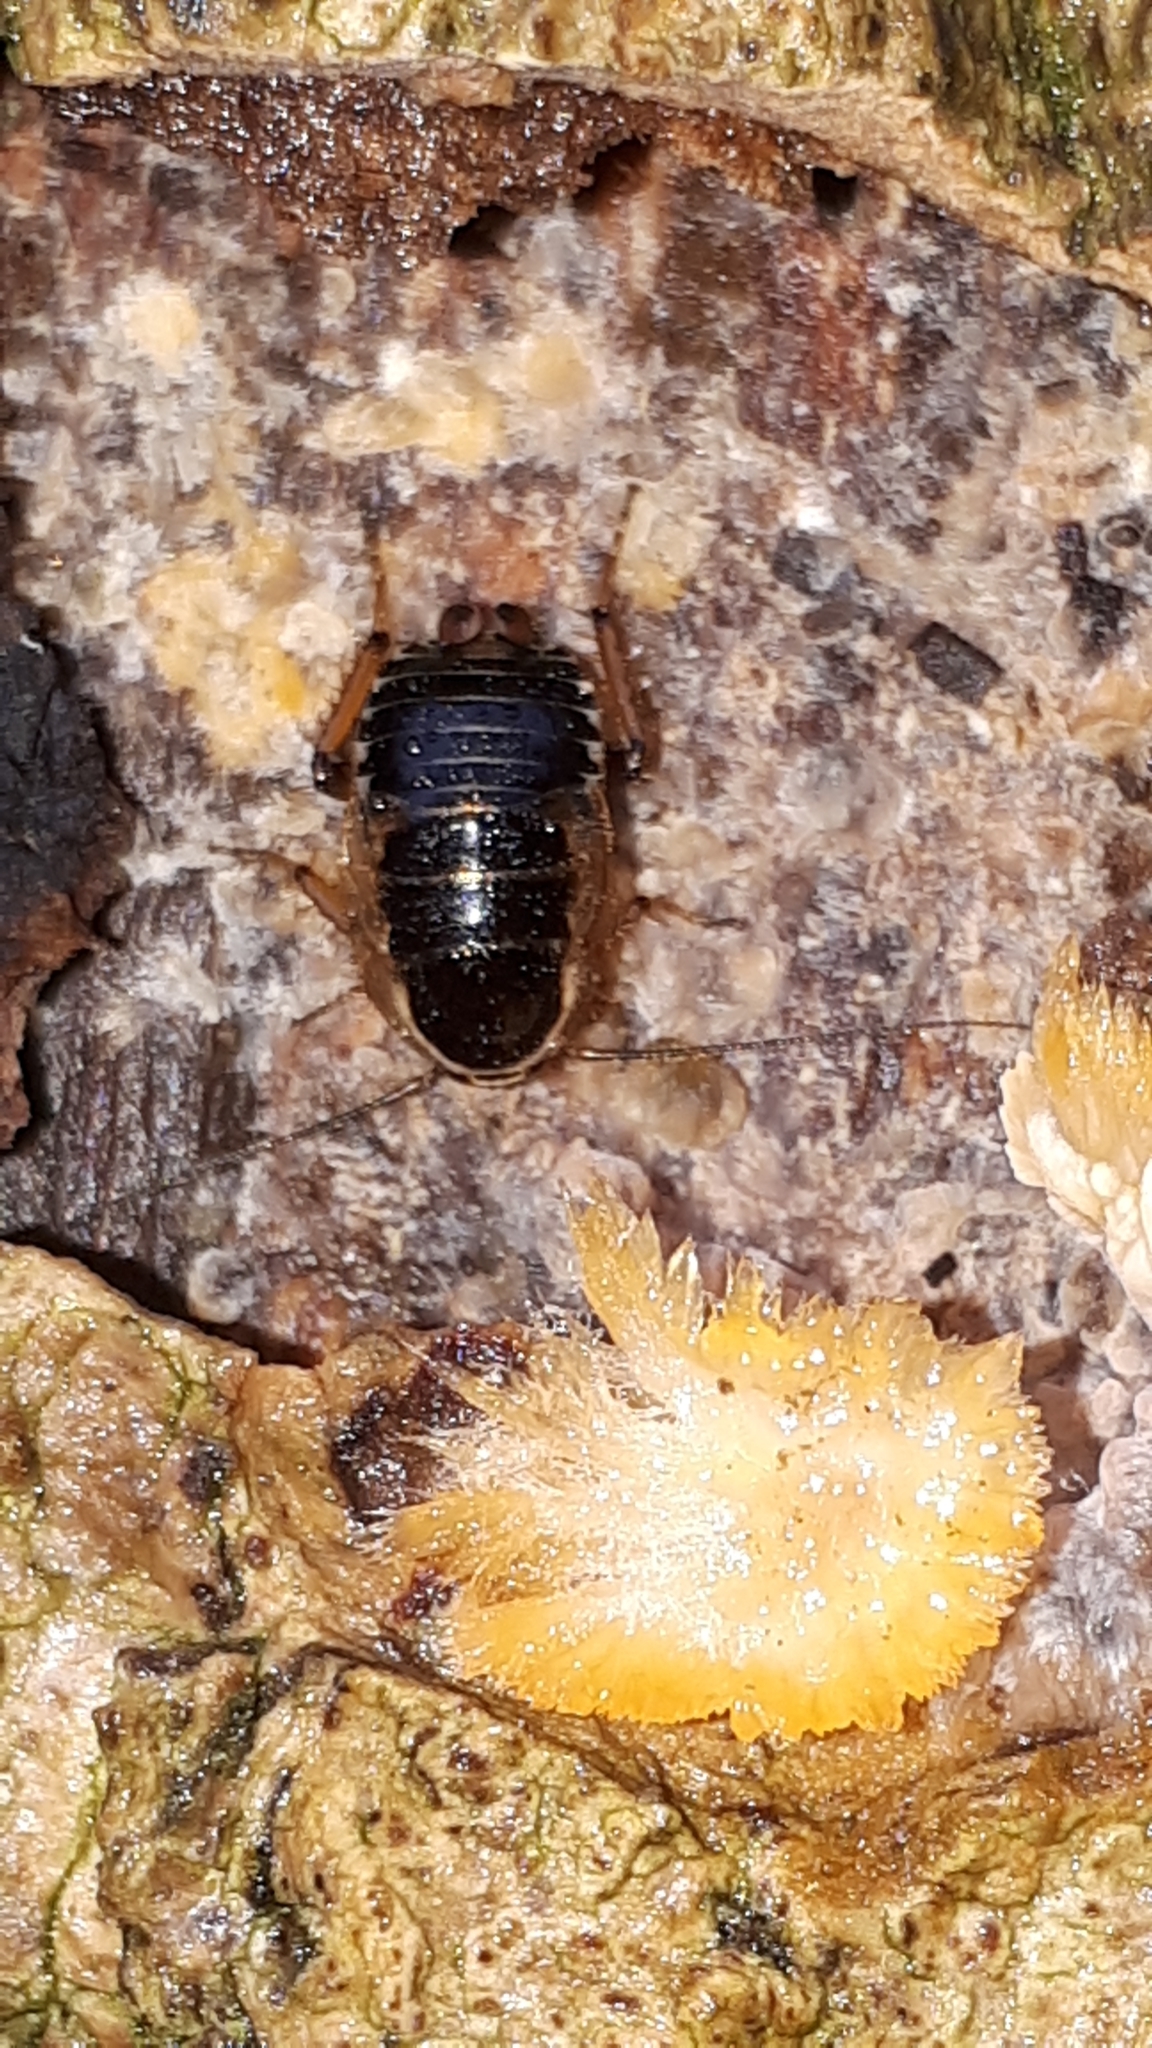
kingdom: Animalia
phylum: Arthropoda
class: Insecta
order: Blattodea
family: Ectobiidae
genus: Ectobius
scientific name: Ectobius sylvestris
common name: Forest cockroach
